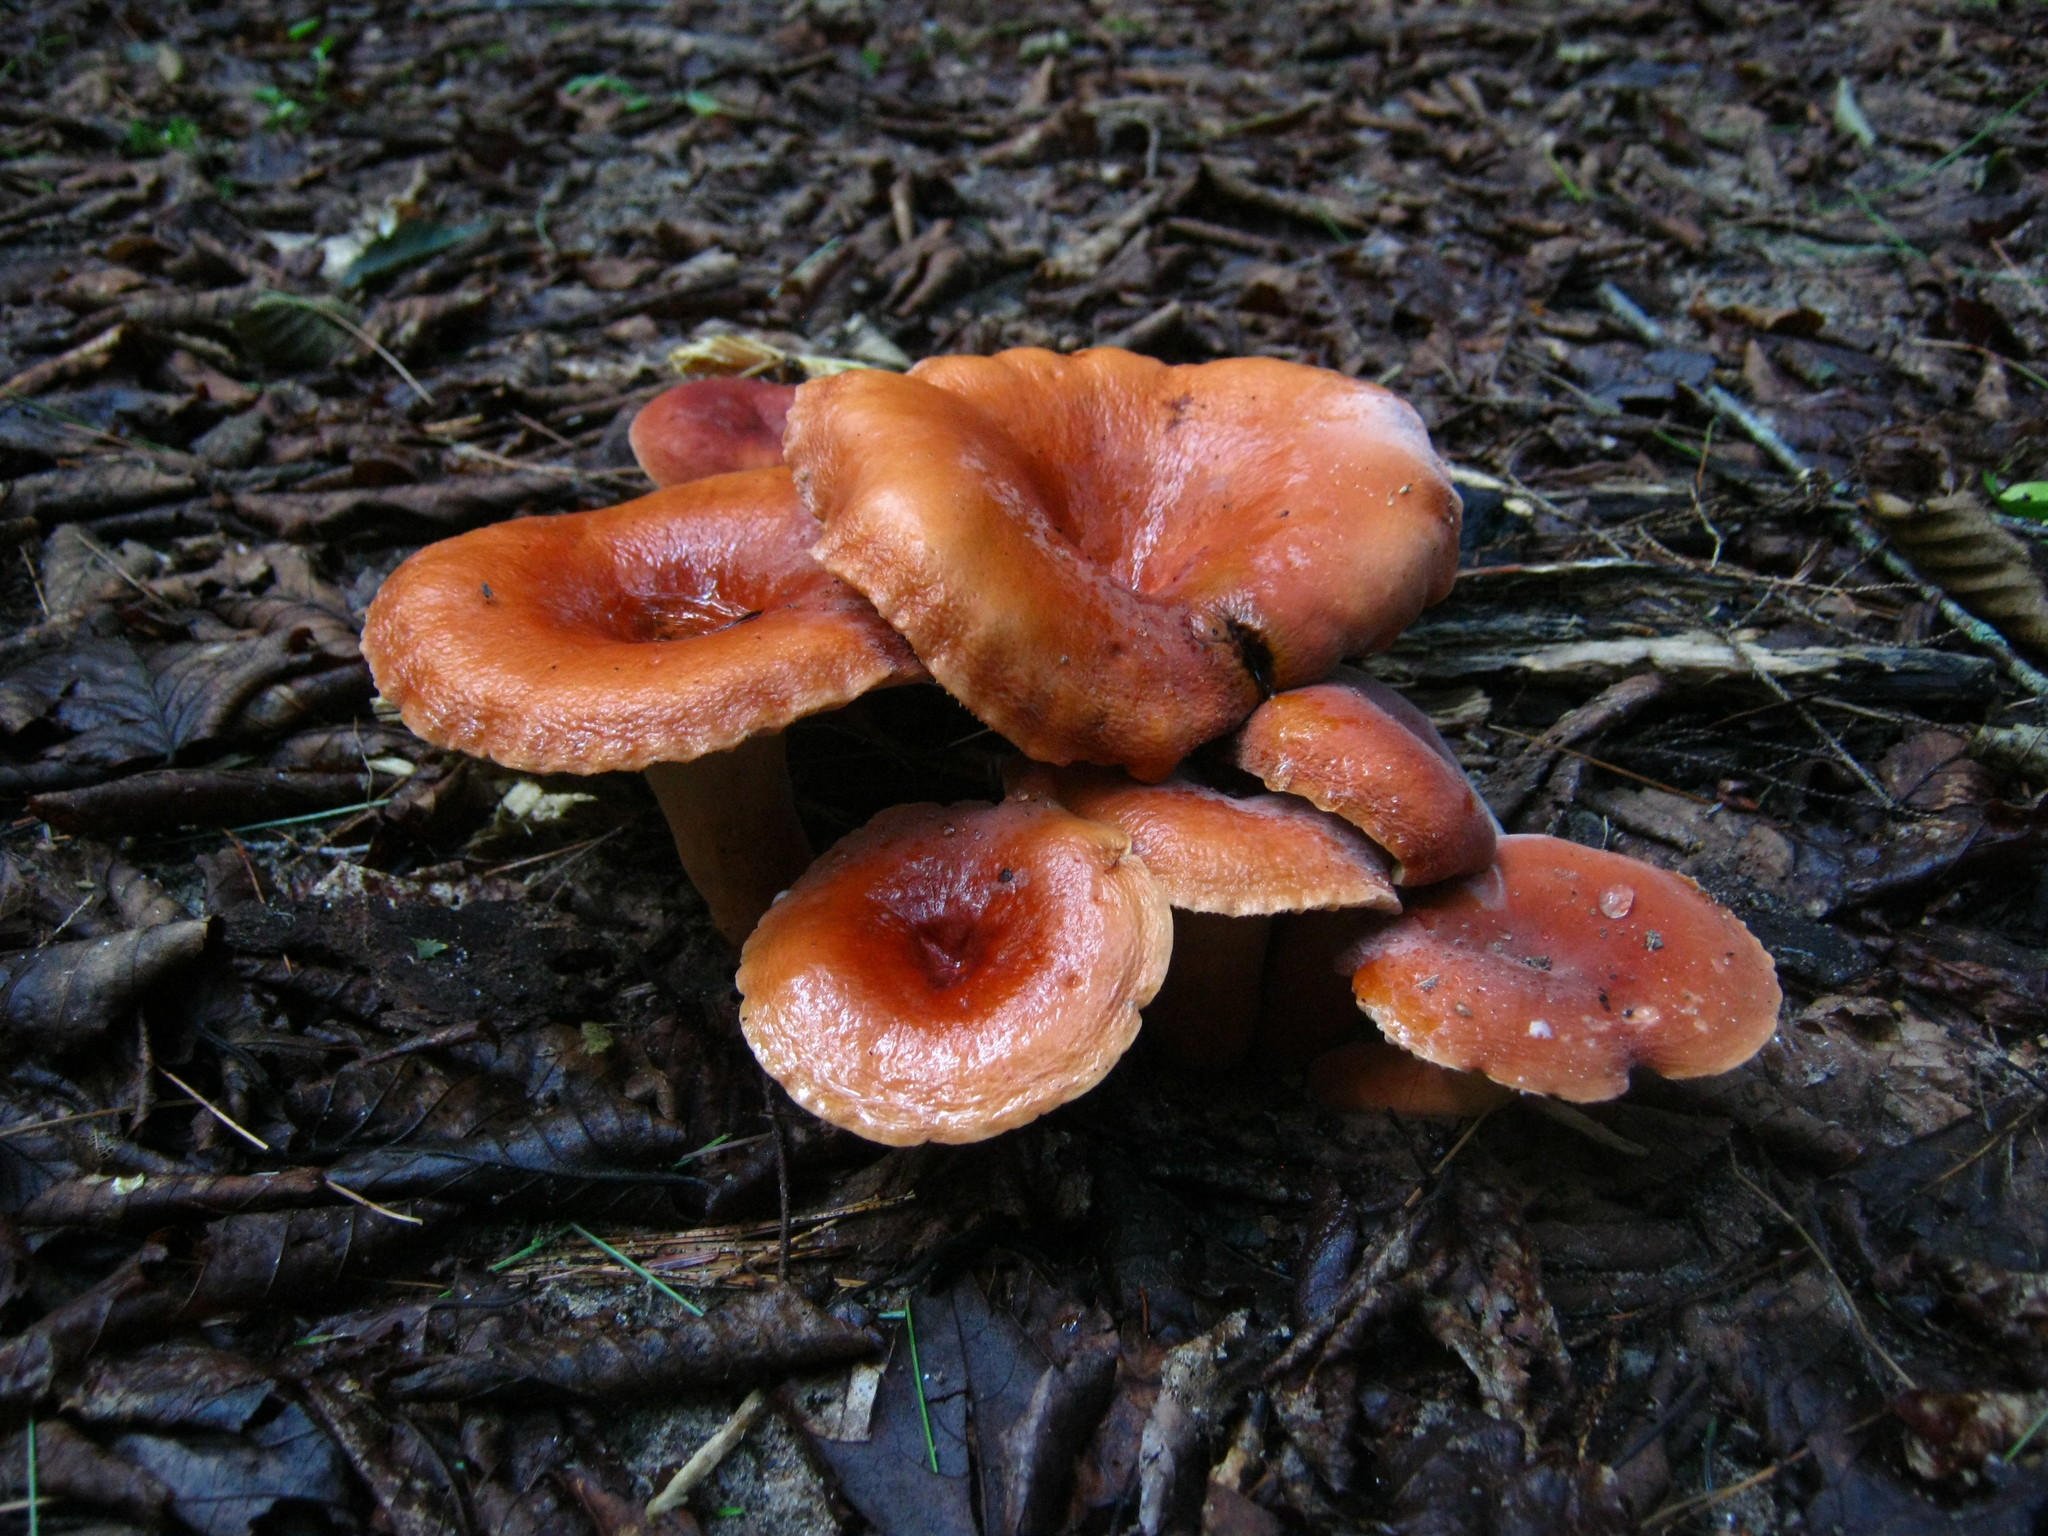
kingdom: Fungi
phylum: Basidiomycota
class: Agaricomycetes
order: Russulales
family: Russulaceae
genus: Lactarius
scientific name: Lactarius hygrophoroides
